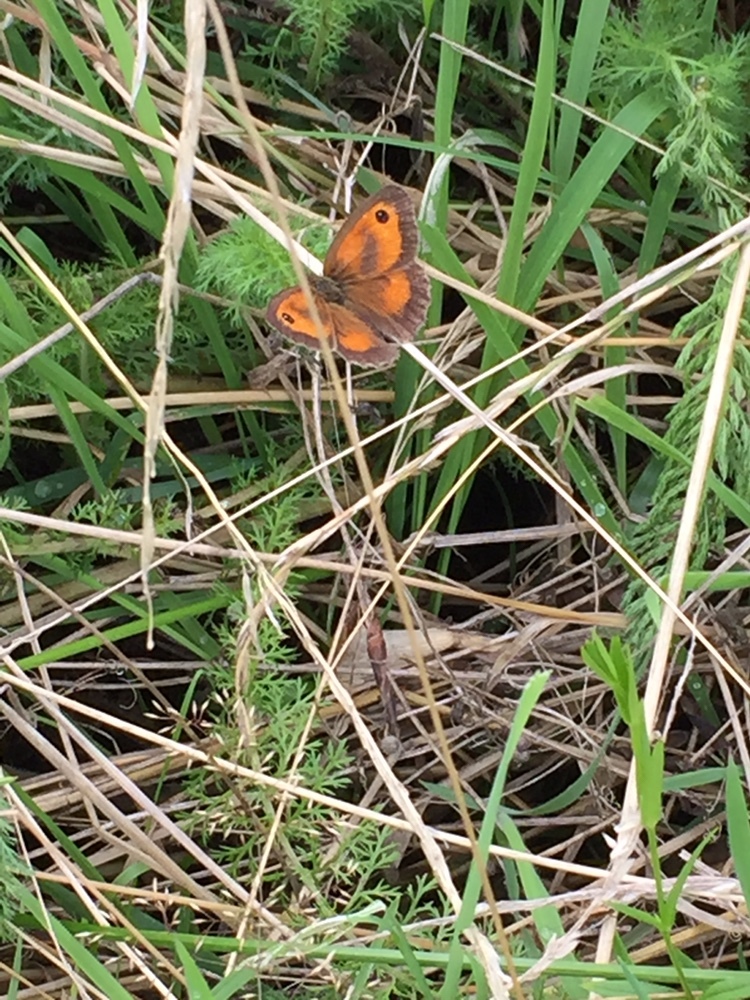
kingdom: Animalia
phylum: Arthropoda
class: Insecta
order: Lepidoptera
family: Nymphalidae
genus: Pyronia
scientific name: Pyronia tithonus
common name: Gatekeeper
